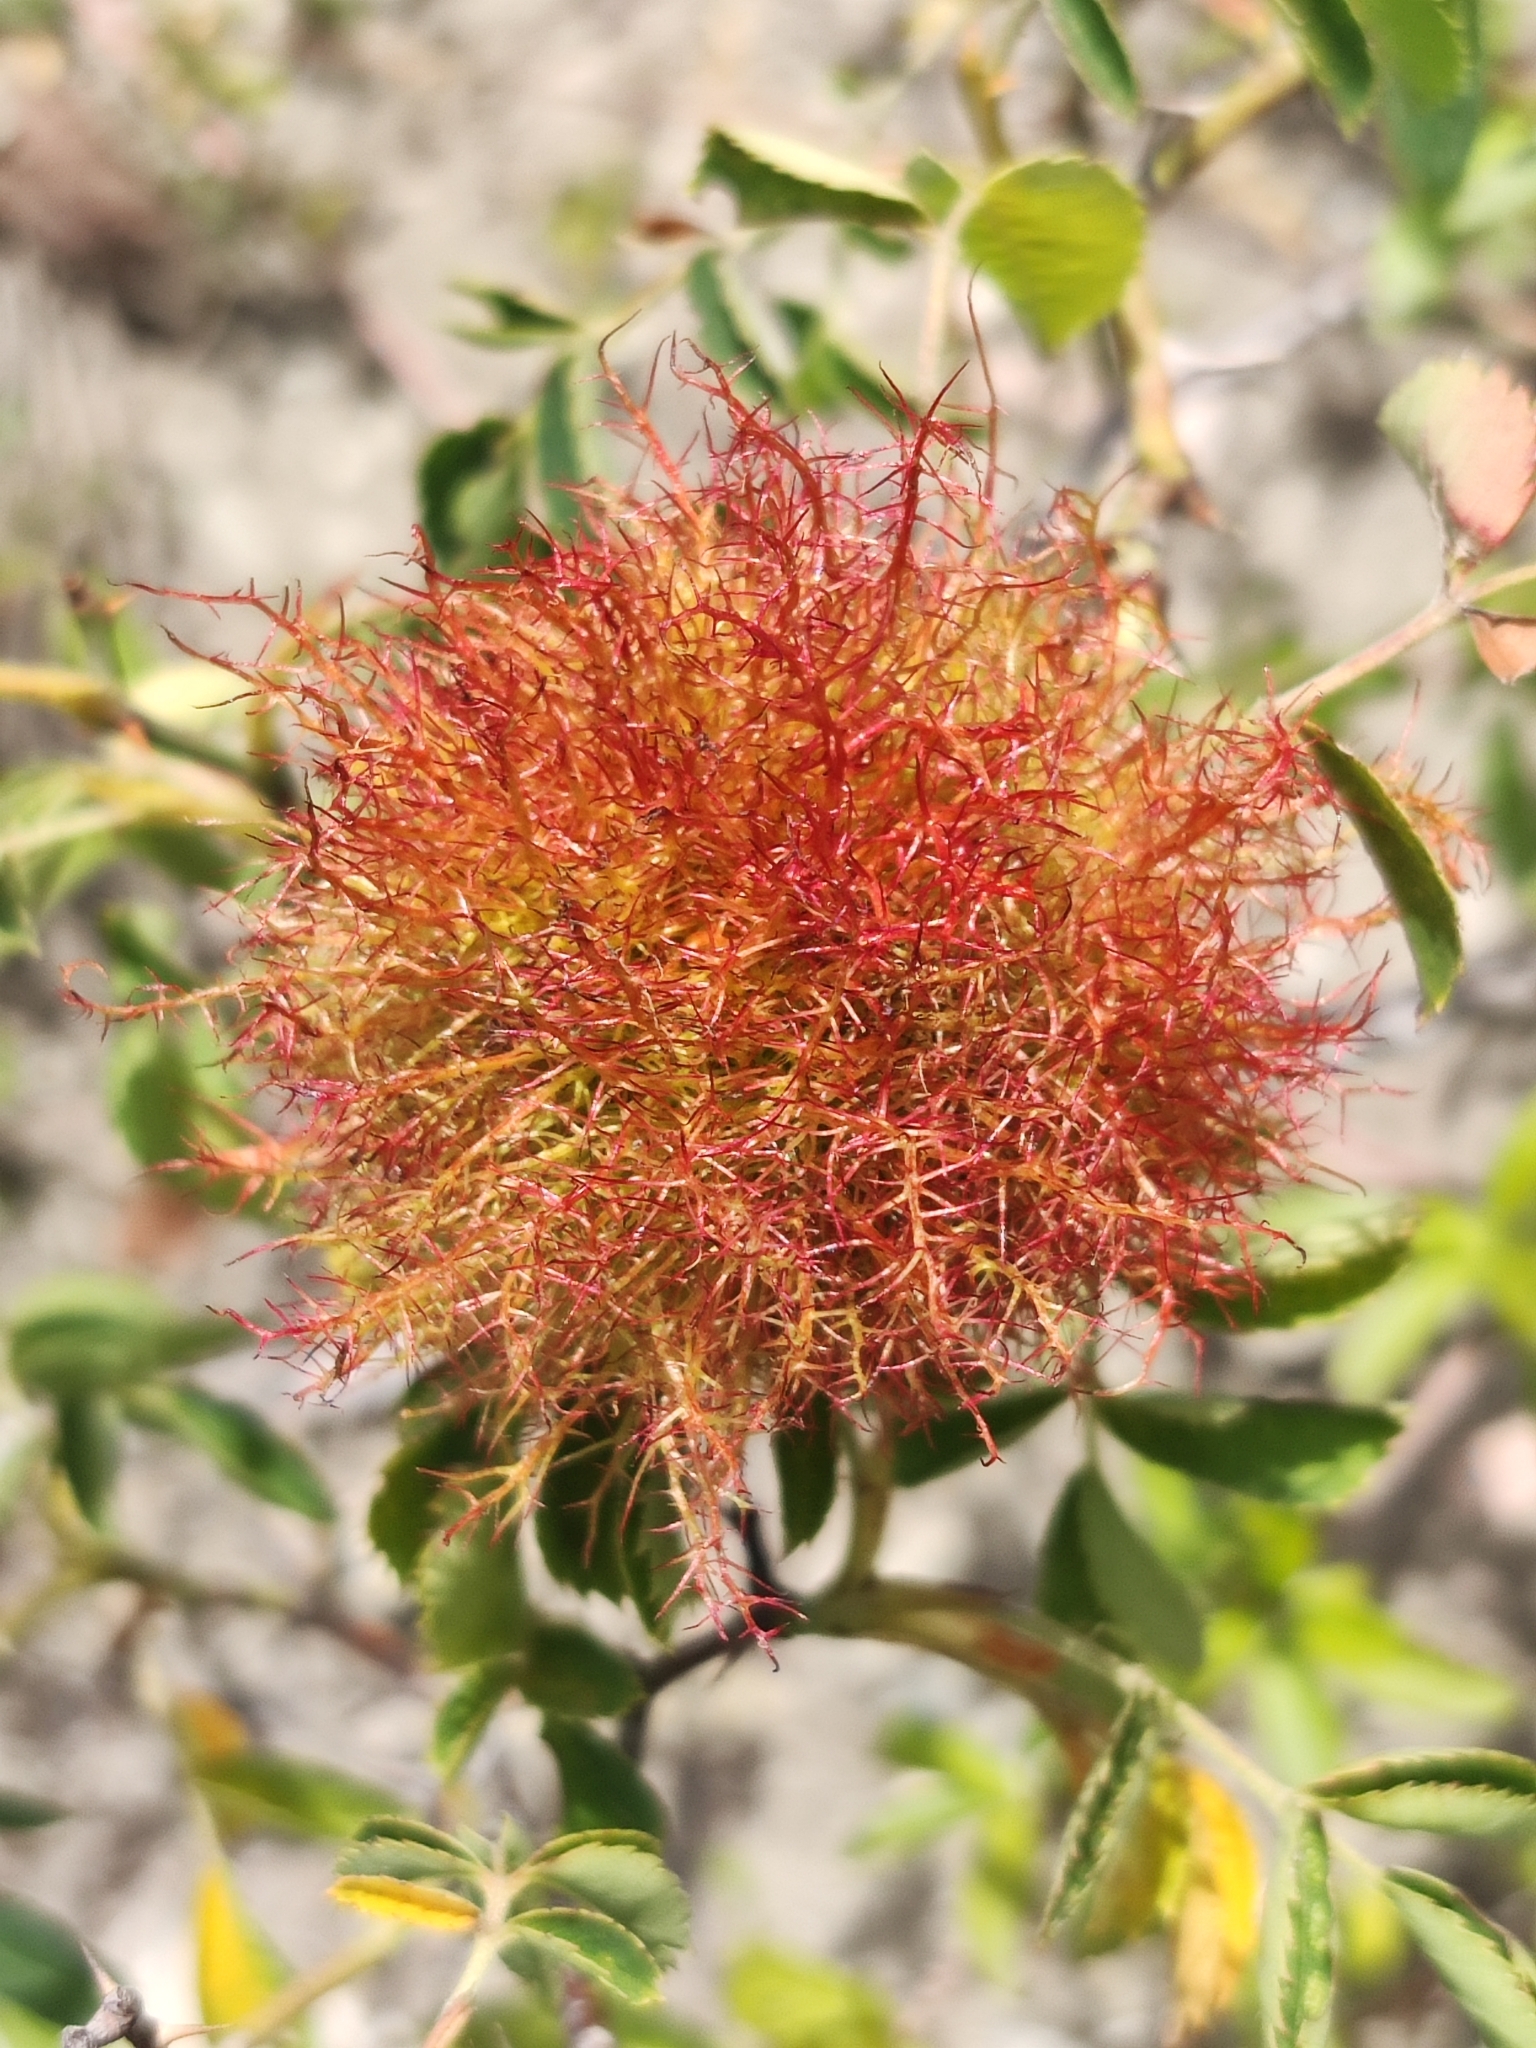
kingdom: Animalia
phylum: Arthropoda
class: Insecta
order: Hymenoptera
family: Cynipidae
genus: Diplolepis
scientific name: Diplolepis rosae
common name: Bedeguar gall
